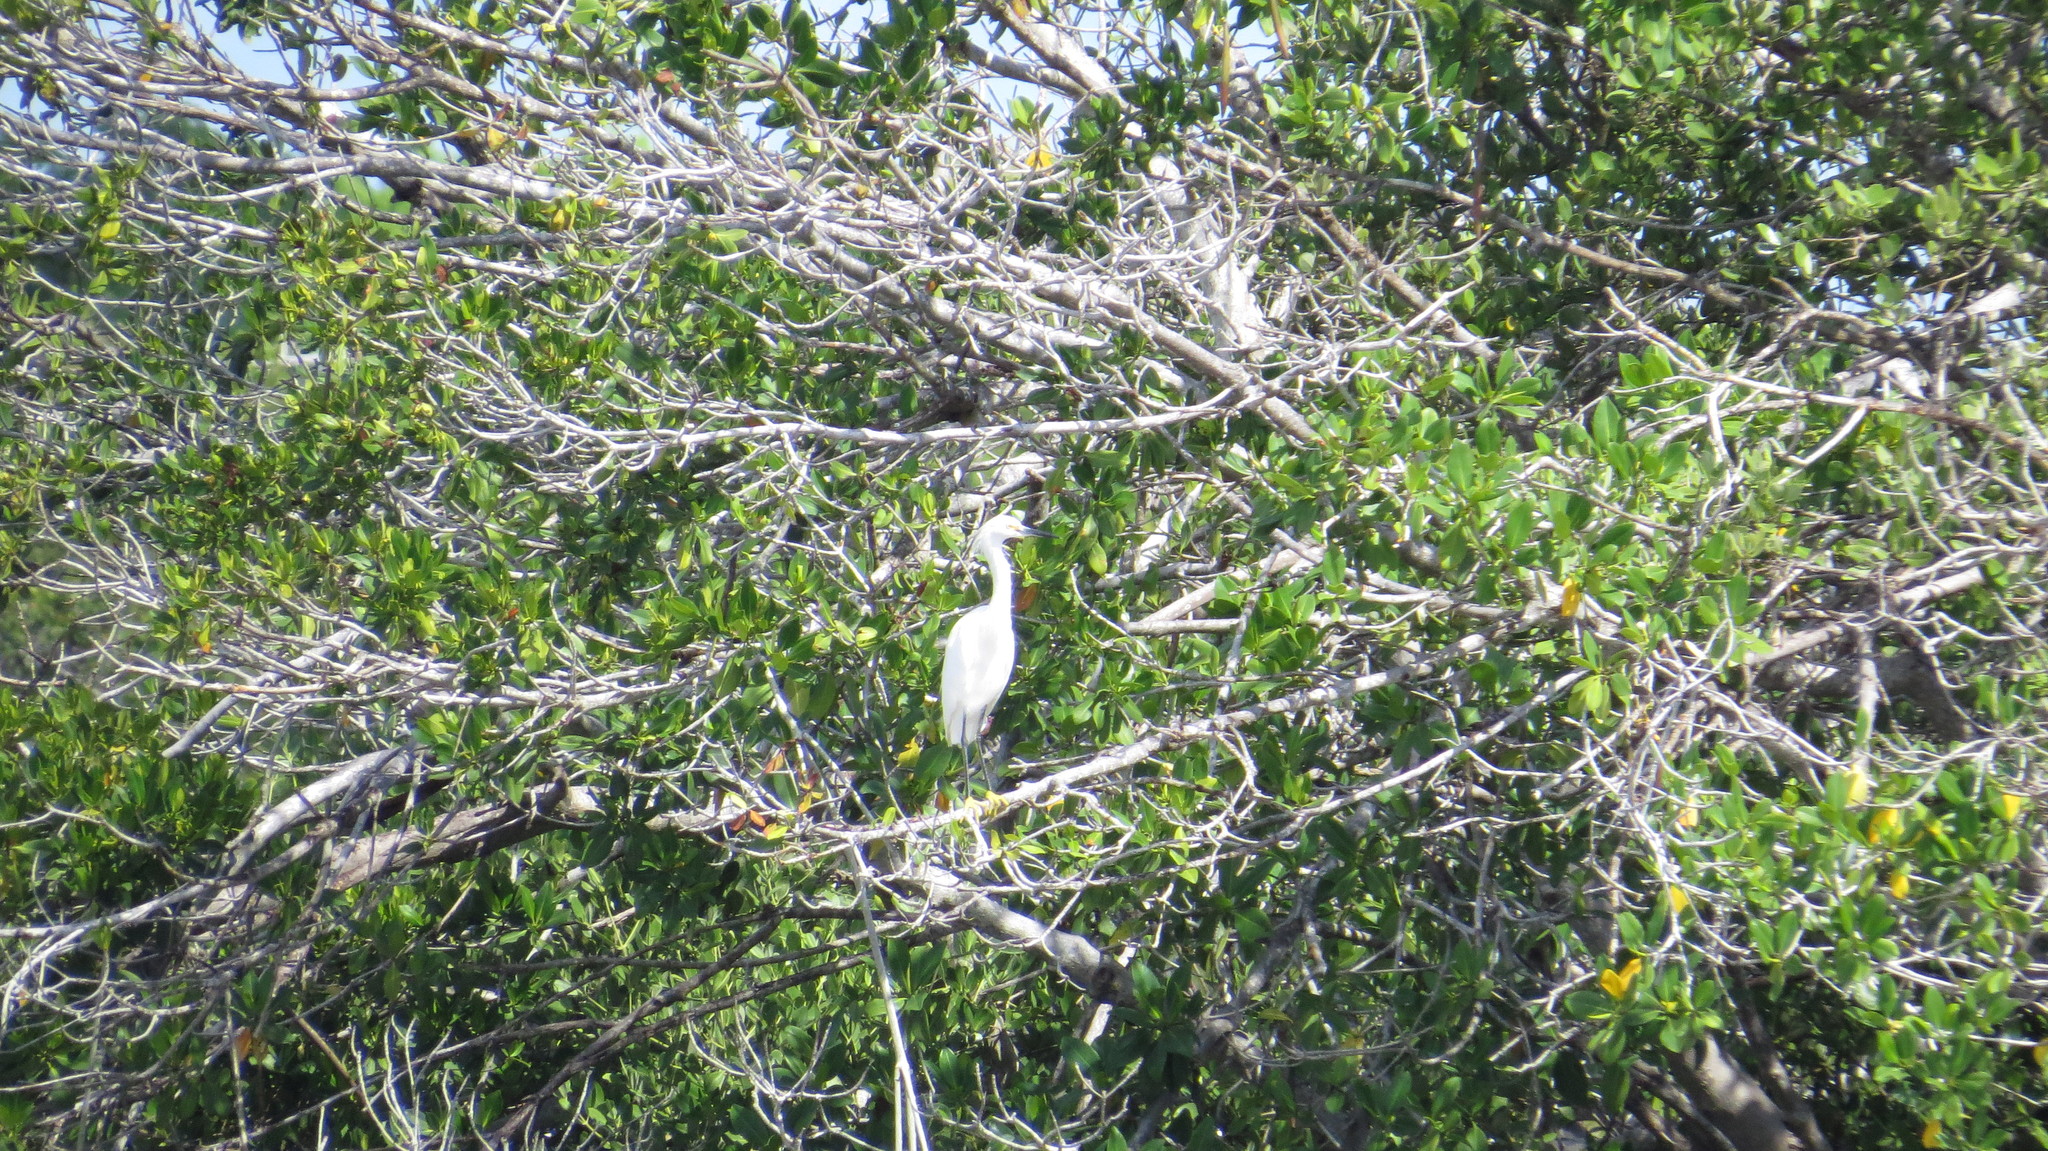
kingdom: Animalia
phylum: Chordata
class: Aves
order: Pelecaniformes
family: Ardeidae
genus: Egretta
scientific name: Egretta thula
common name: Snowy egret
